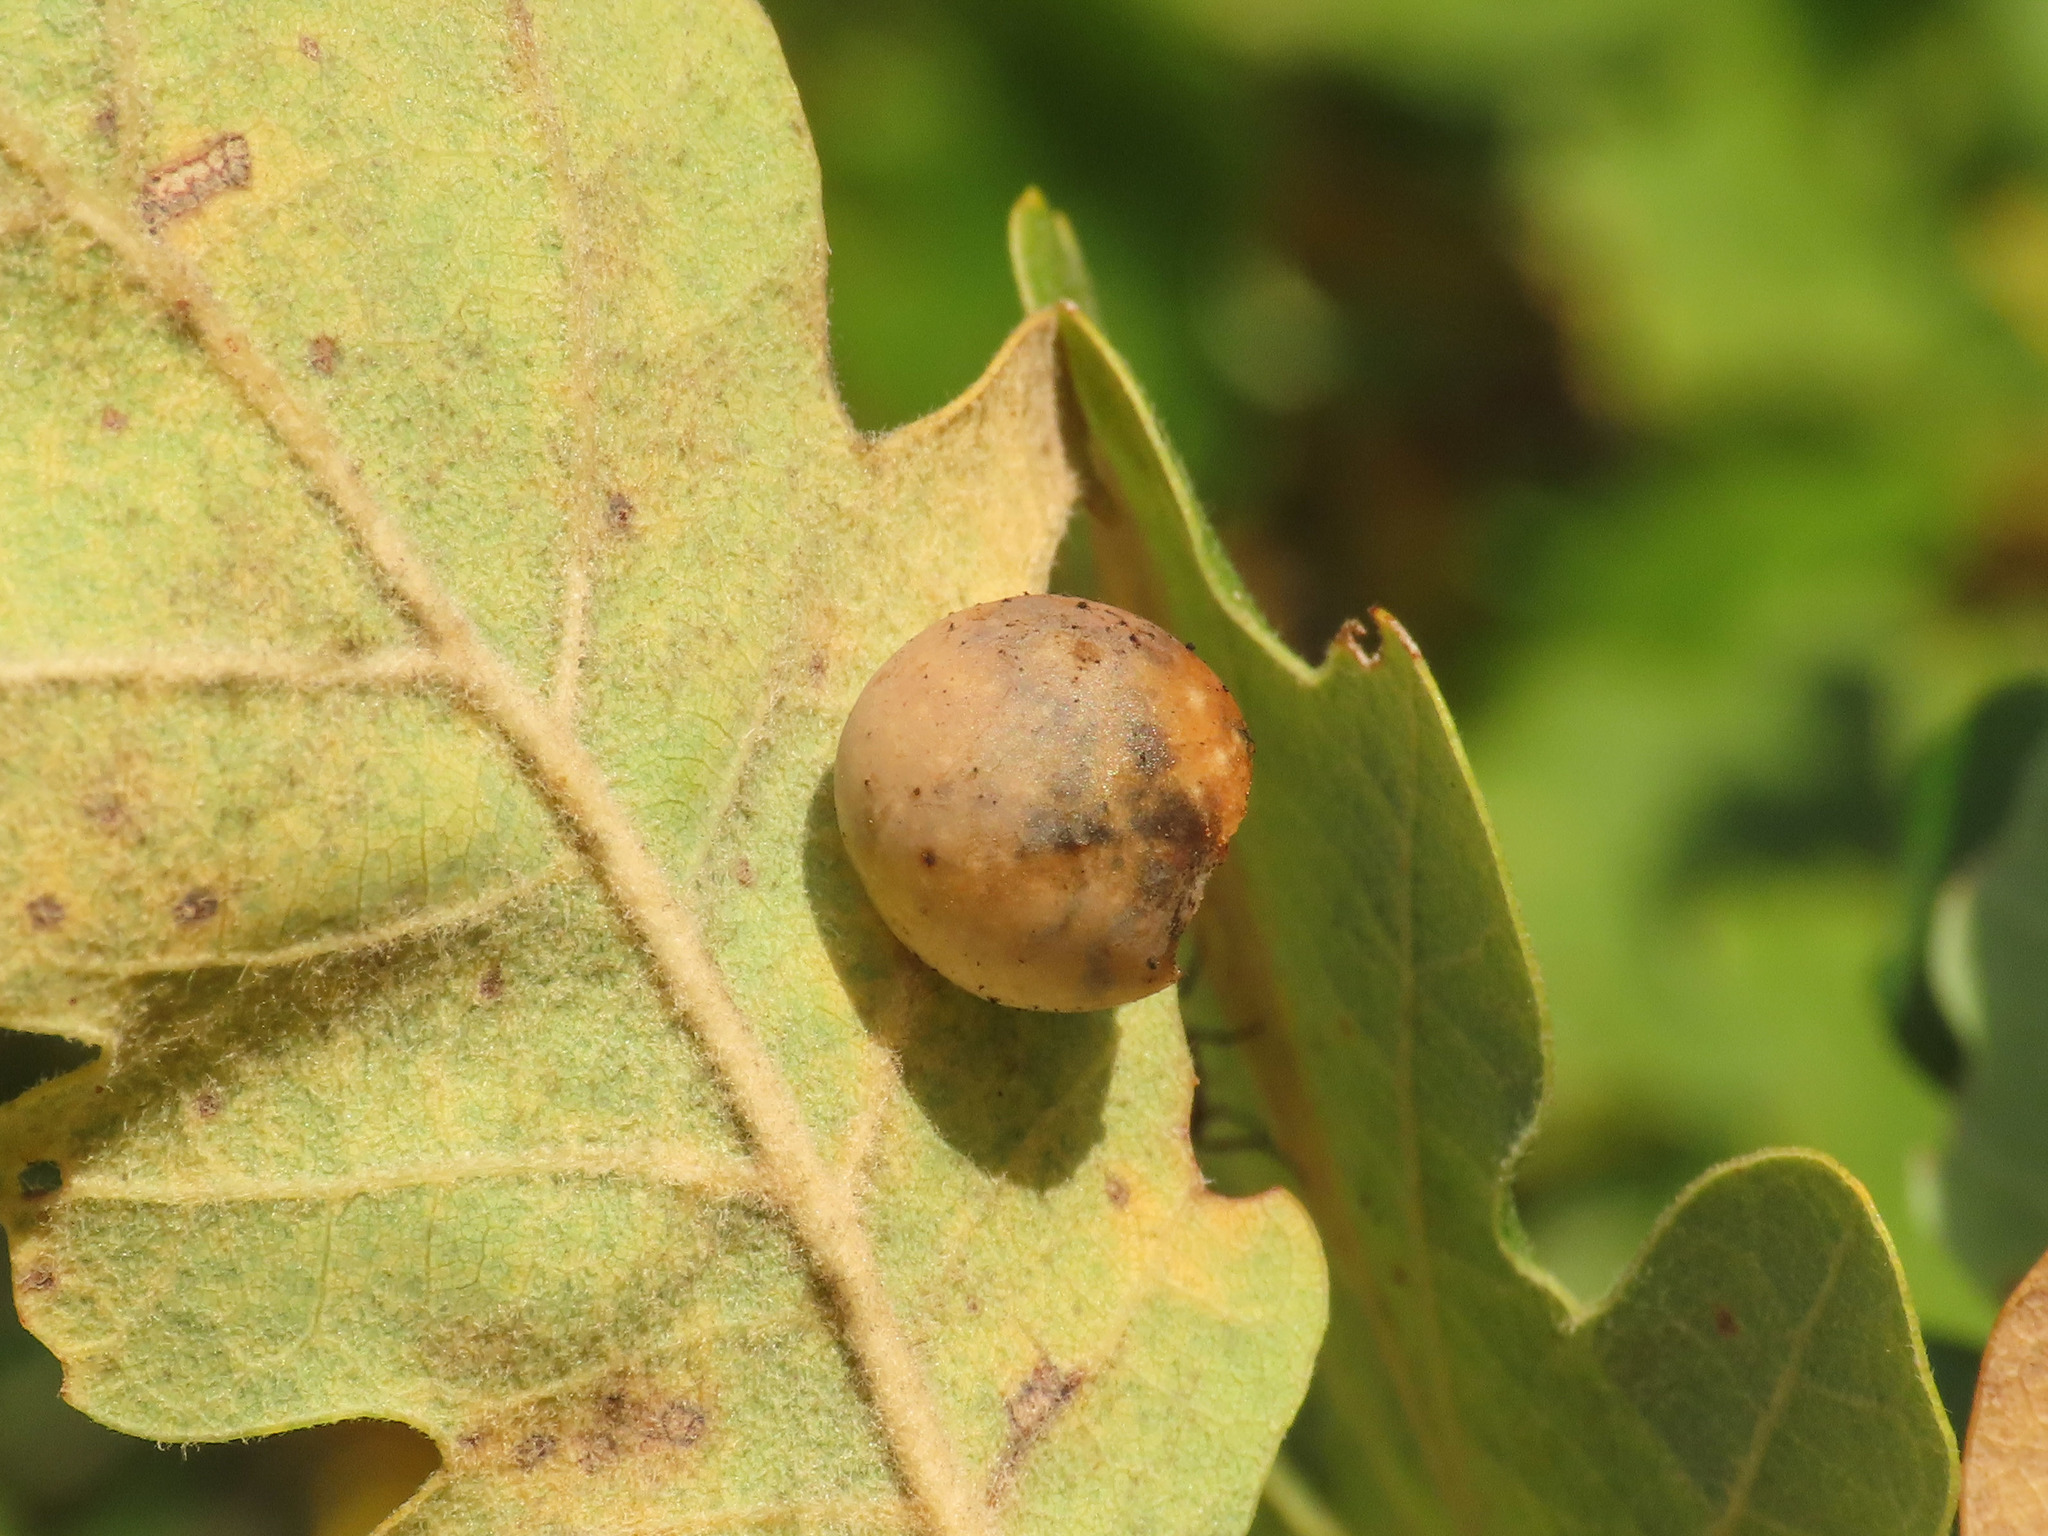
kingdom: Animalia
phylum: Arthropoda
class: Insecta
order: Hymenoptera
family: Cynipidae
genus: Cynips
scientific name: Cynips quercus
